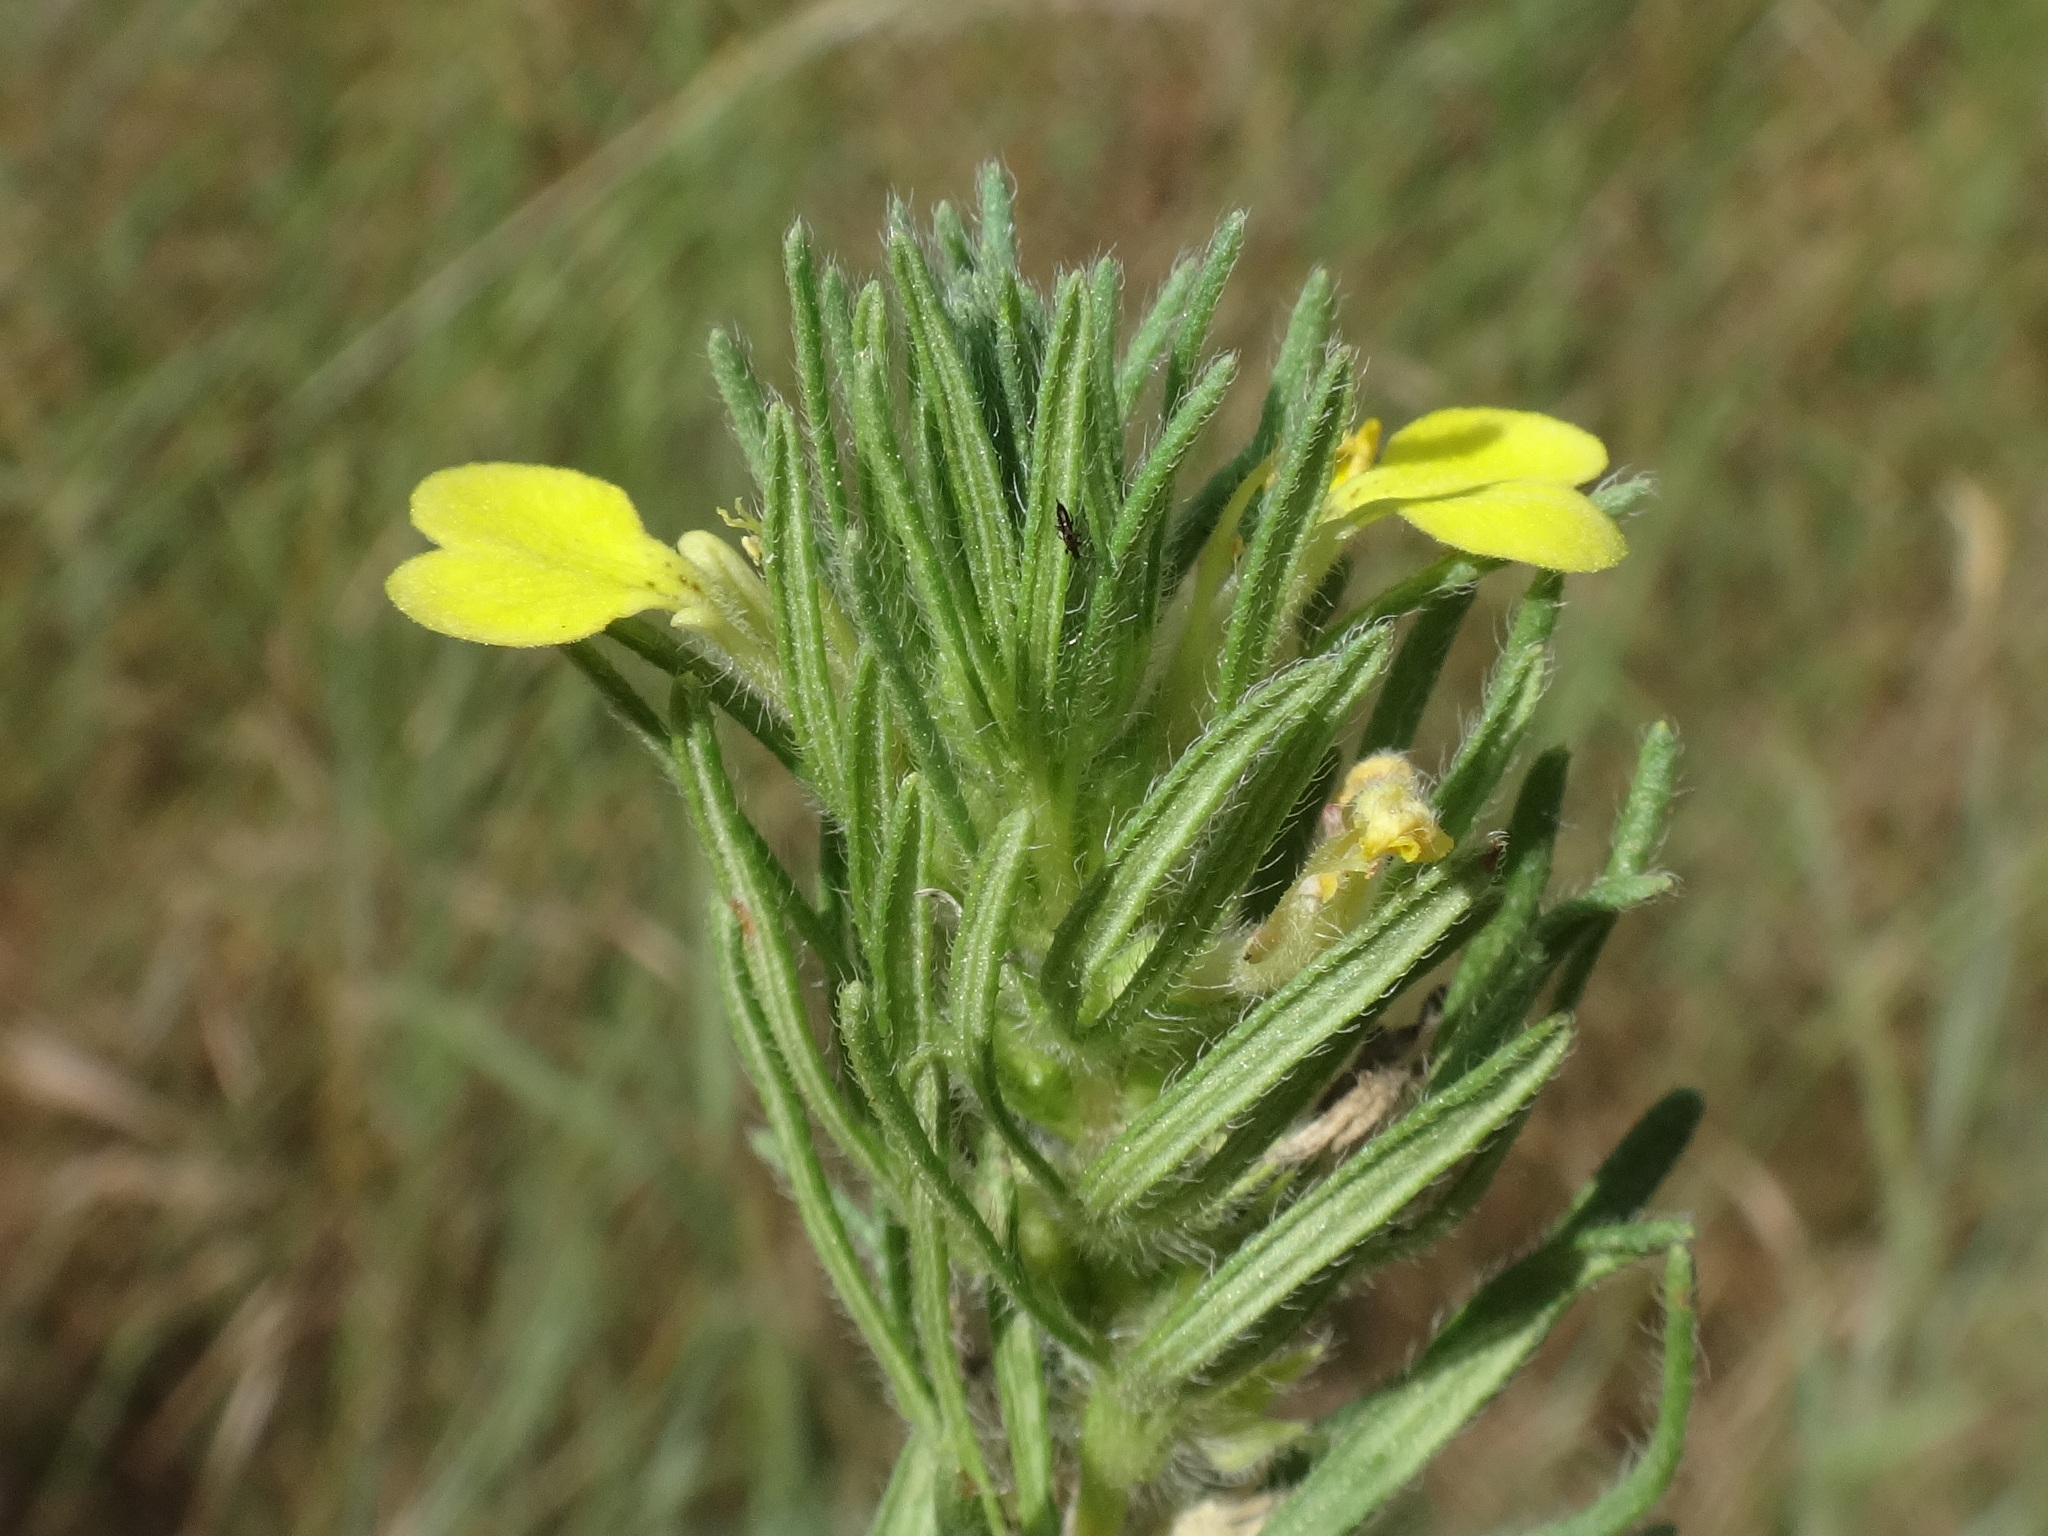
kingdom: Plantae
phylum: Tracheophyta
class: Magnoliopsida
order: Lamiales
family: Lamiaceae
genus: Ajuga
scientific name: Ajuga chamaepitys
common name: Ground-pine
